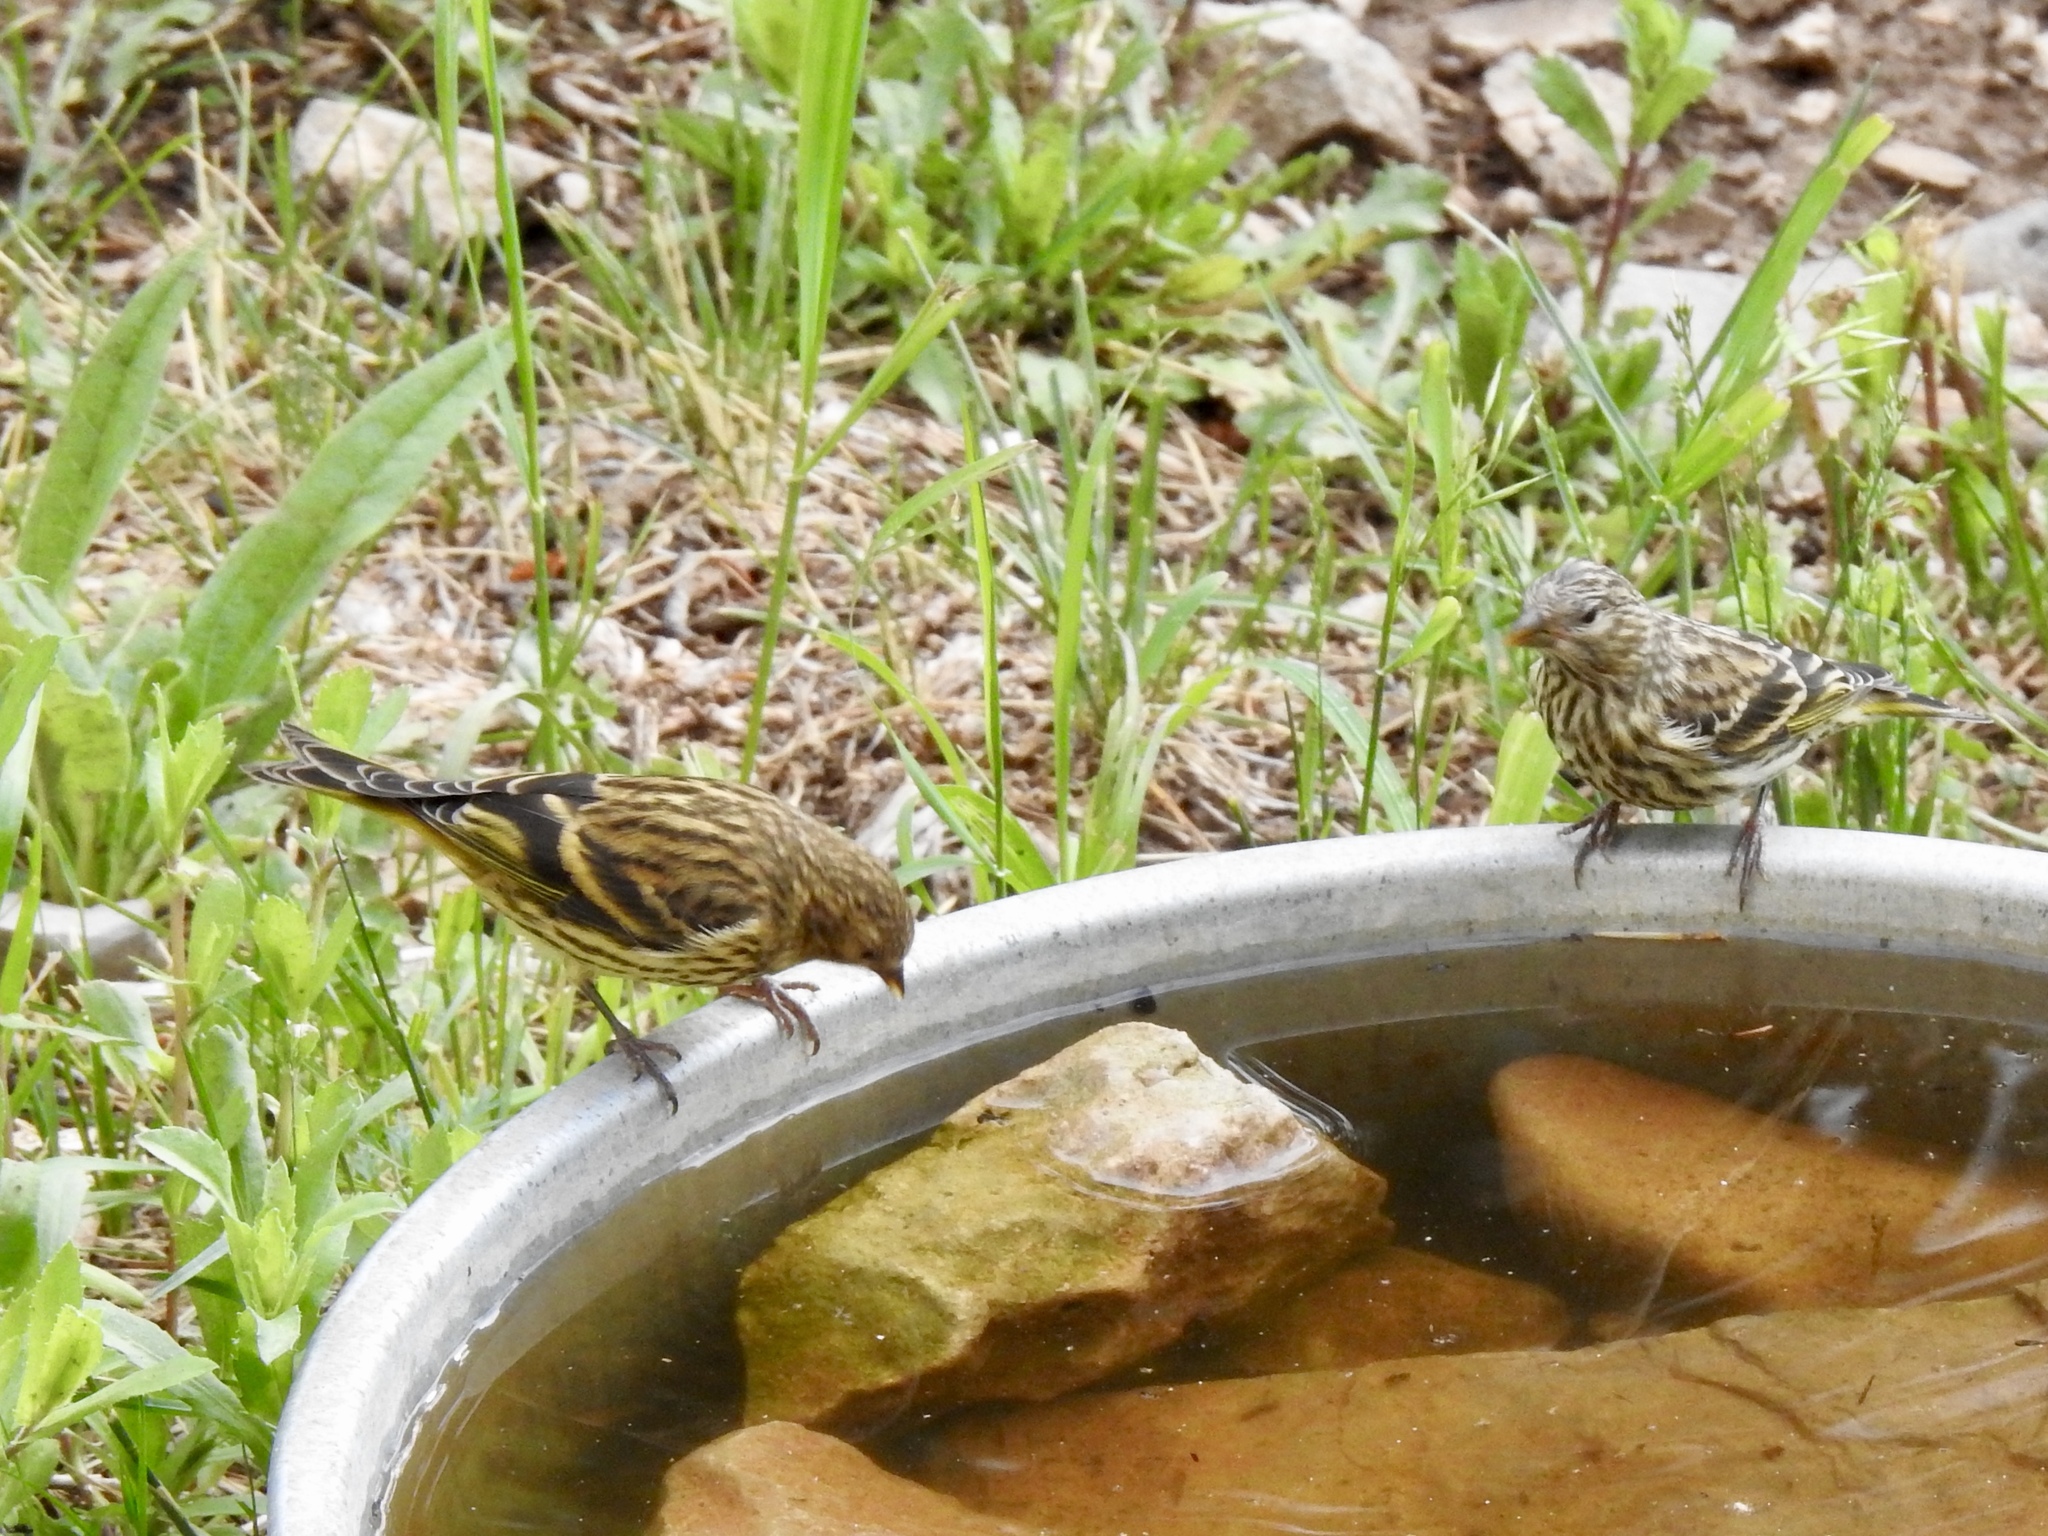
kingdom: Animalia
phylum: Chordata
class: Aves
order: Passeriformes
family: Fringillidae
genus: Spinus
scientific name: Spinus pinus
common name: Pine siskin
